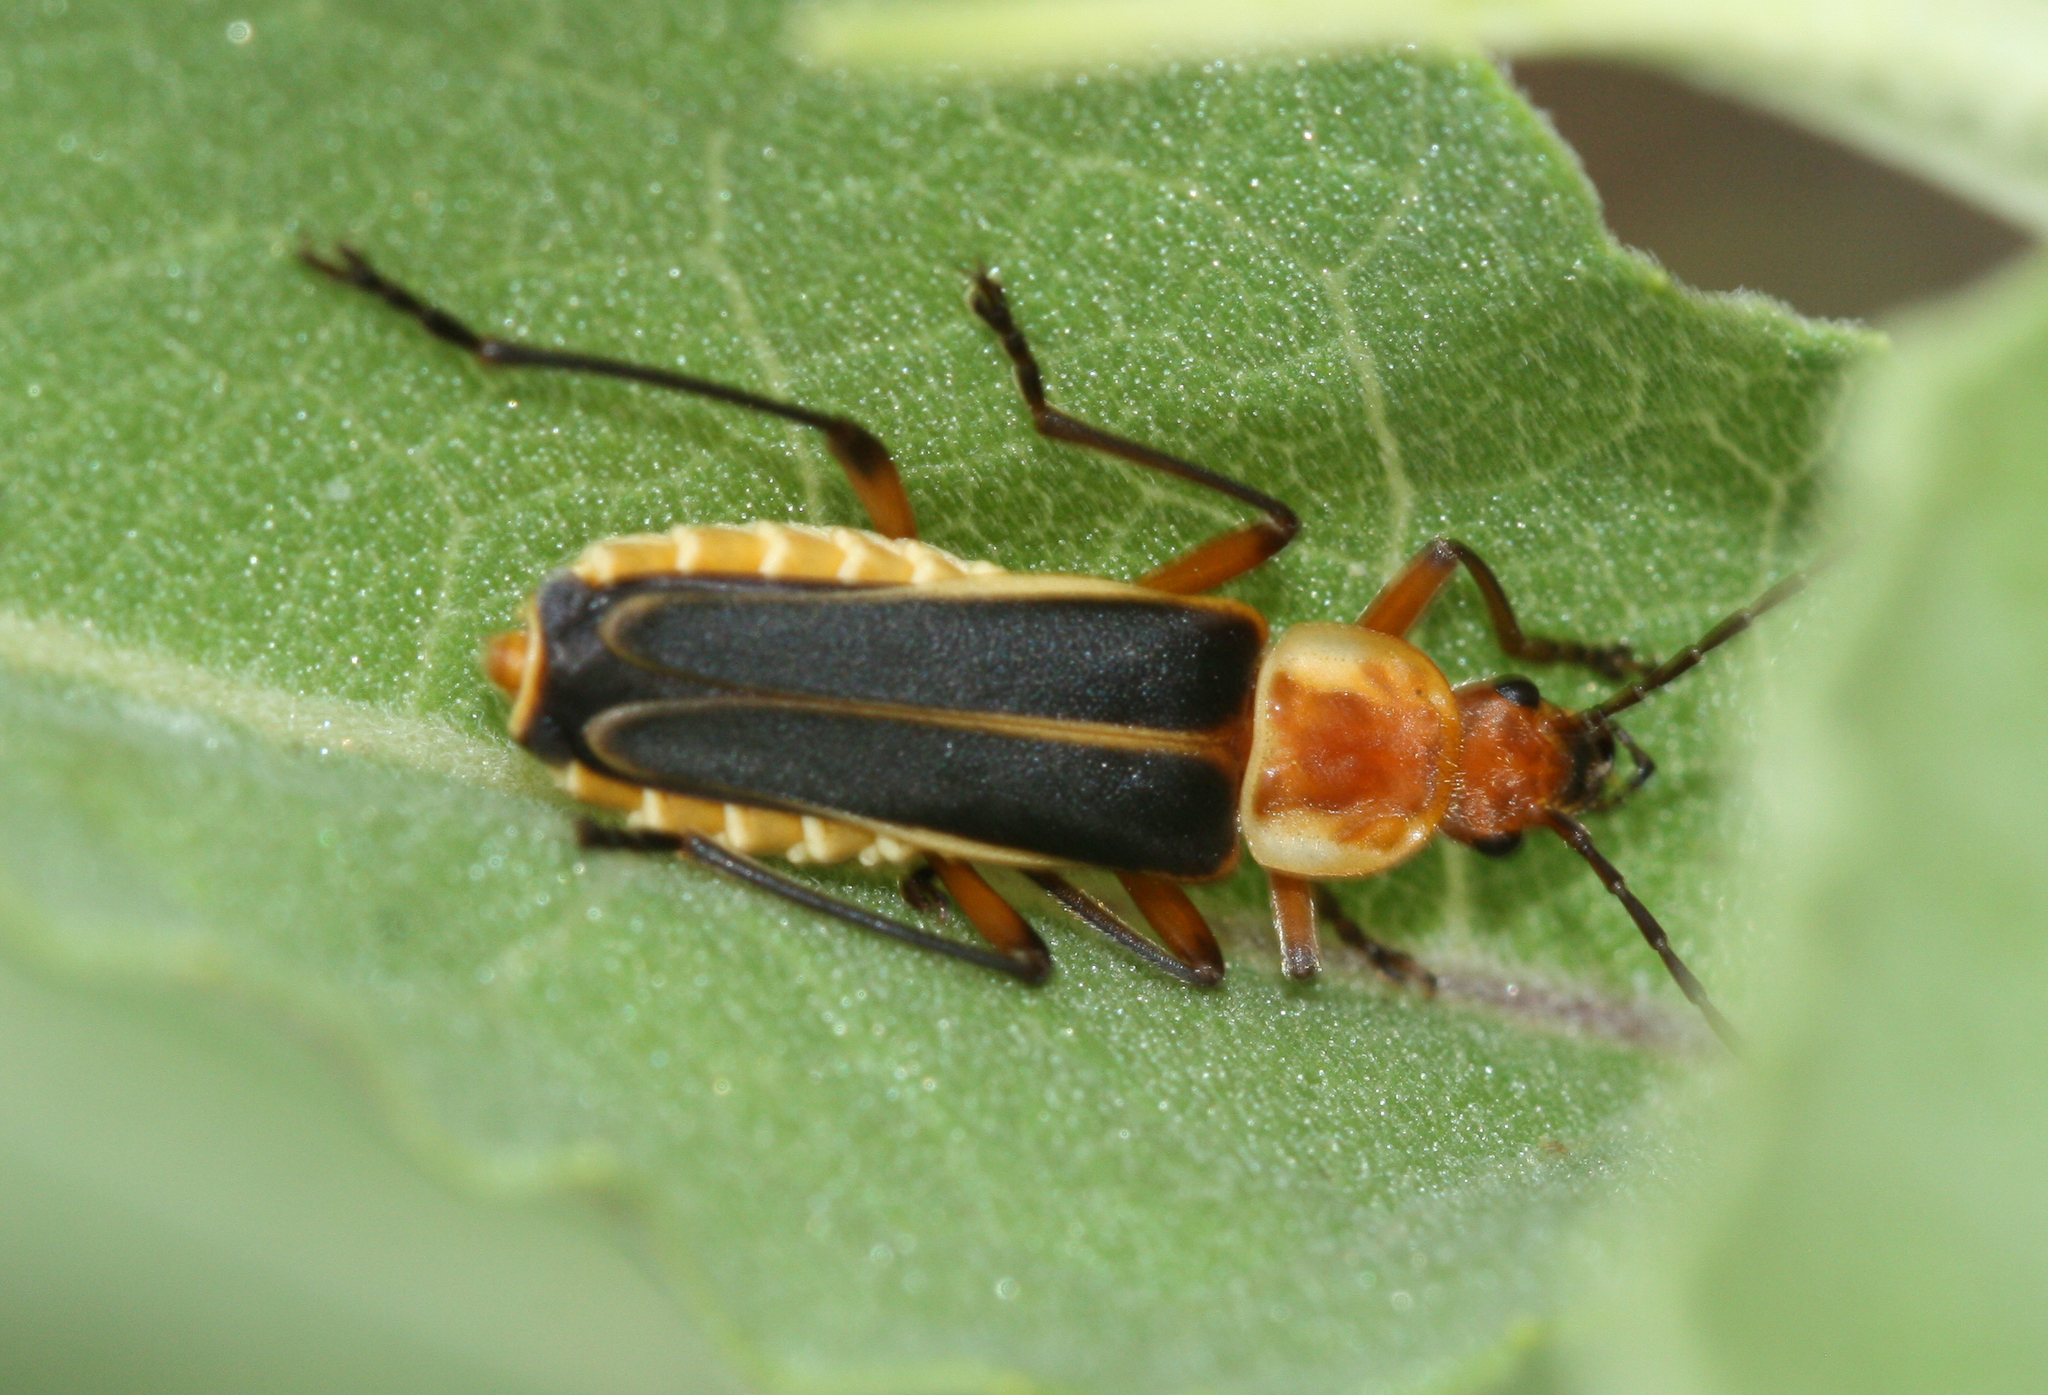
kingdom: Animalia
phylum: Arthropoda
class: Insecta
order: Coleoptera
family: Cantharidae
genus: Chauliognathus
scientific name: Chauliognathus obscurus
